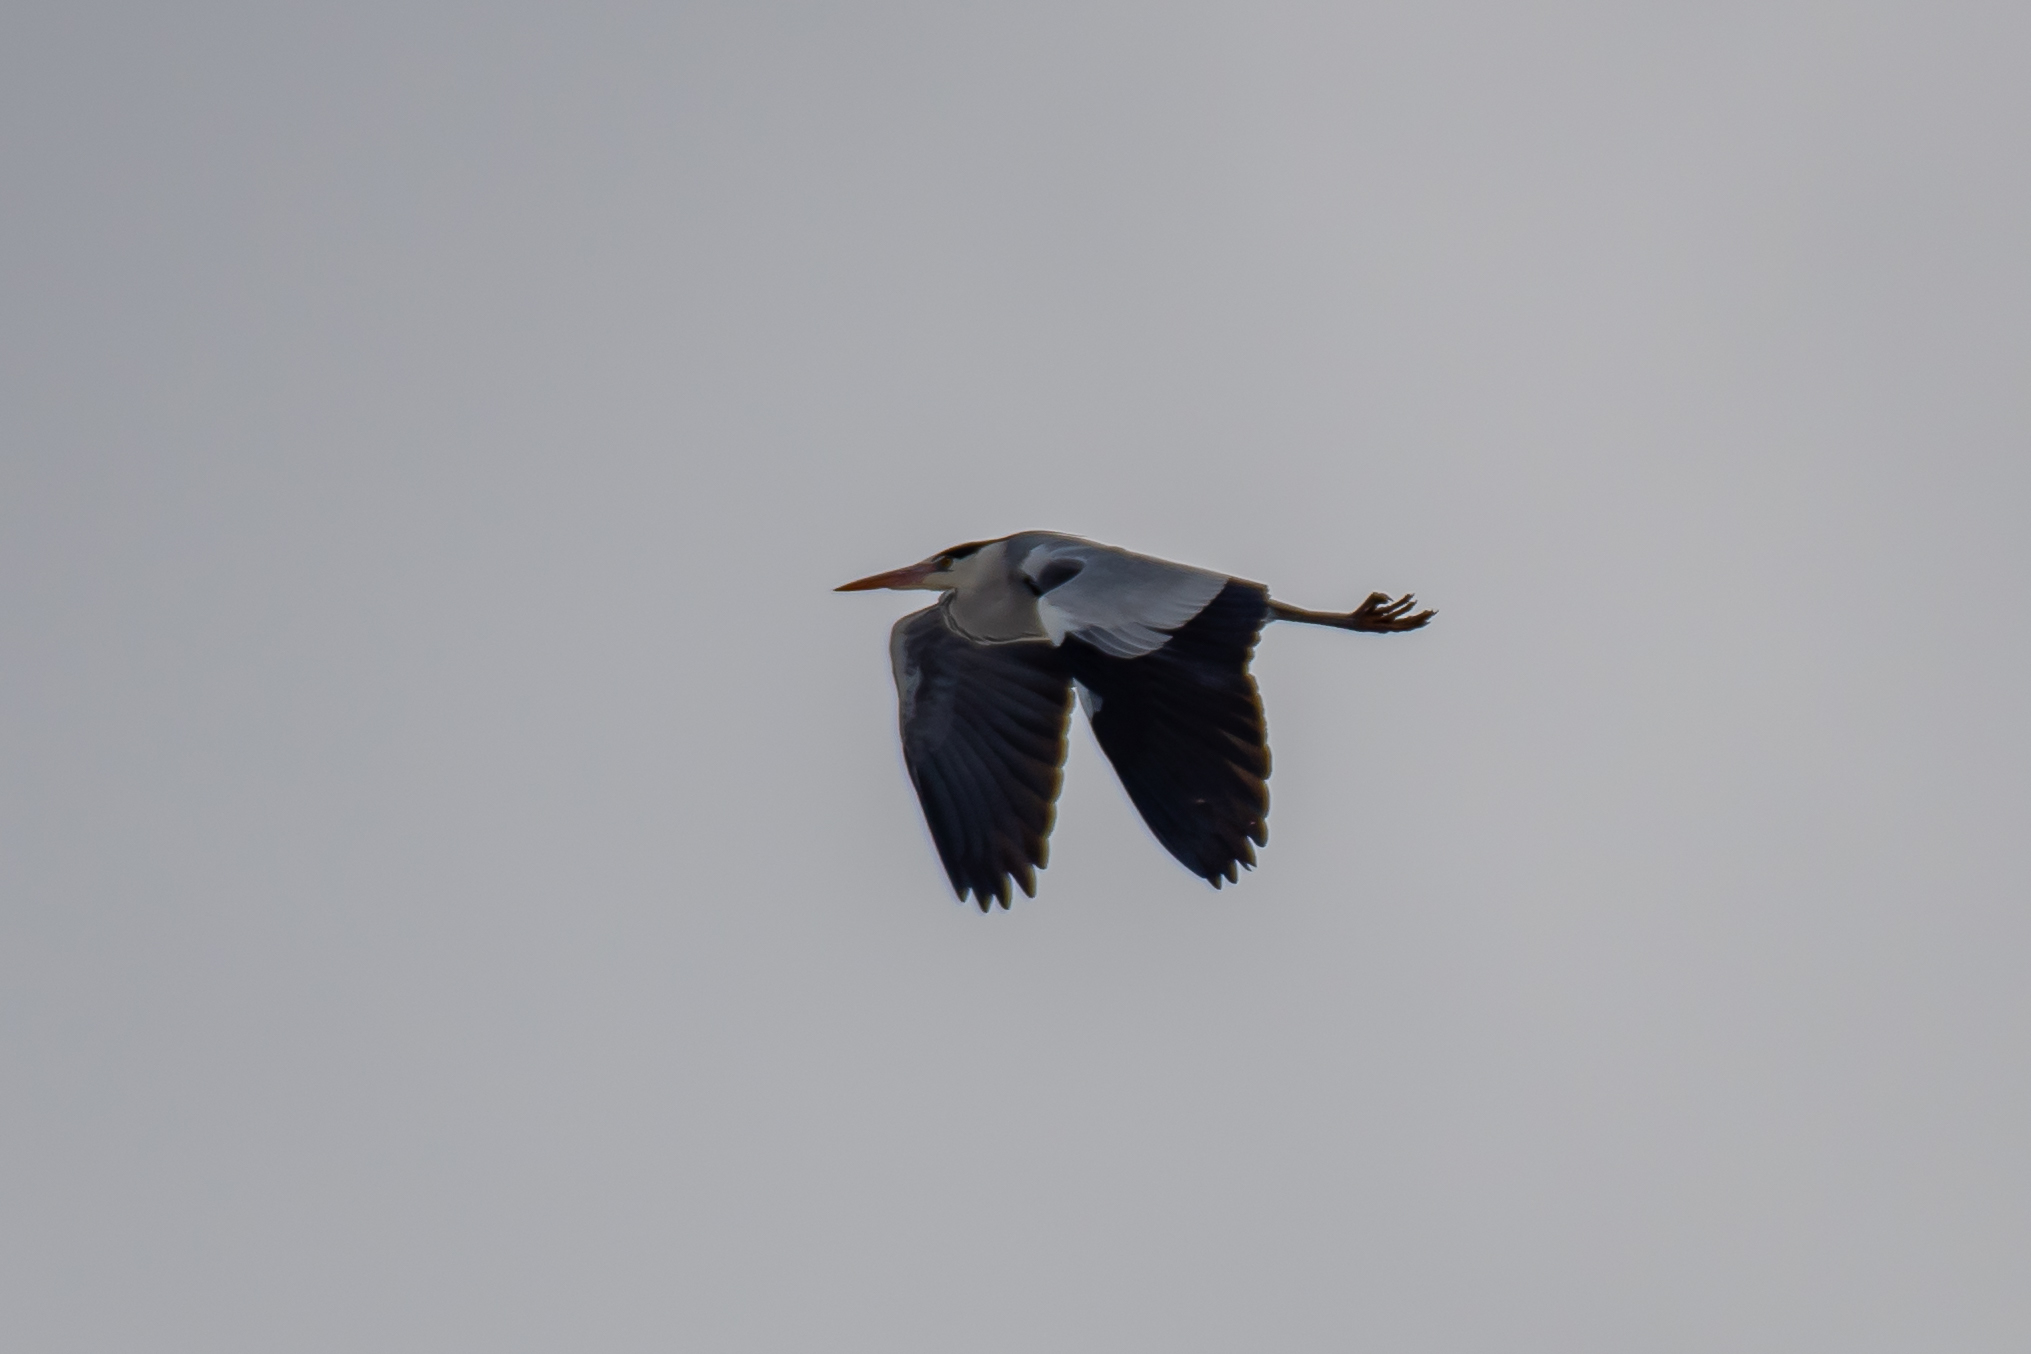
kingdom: Animalia
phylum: Chordata
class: Aves
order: Pelecaniformes
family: Ardeidae
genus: Ardea
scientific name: Ardea cinerea
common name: Grey heron
